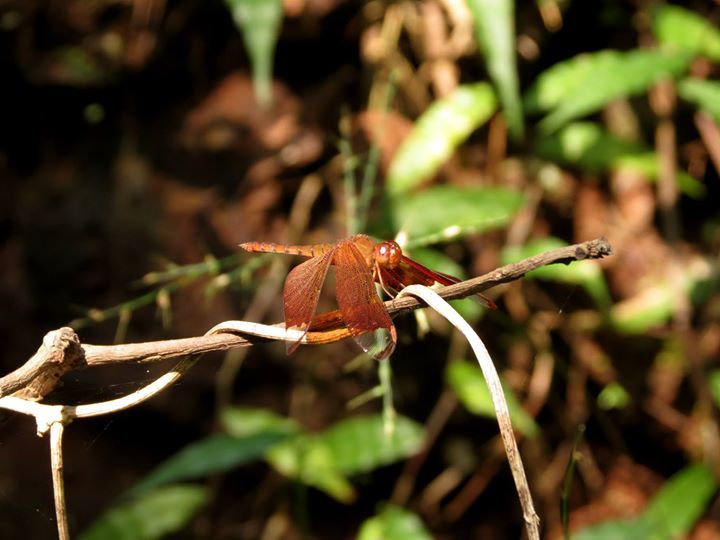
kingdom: Animalia
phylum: Arthropoda
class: Insecta
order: Odonata
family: Libellulidae
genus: Neurothemis
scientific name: Neurothemis fulvia
